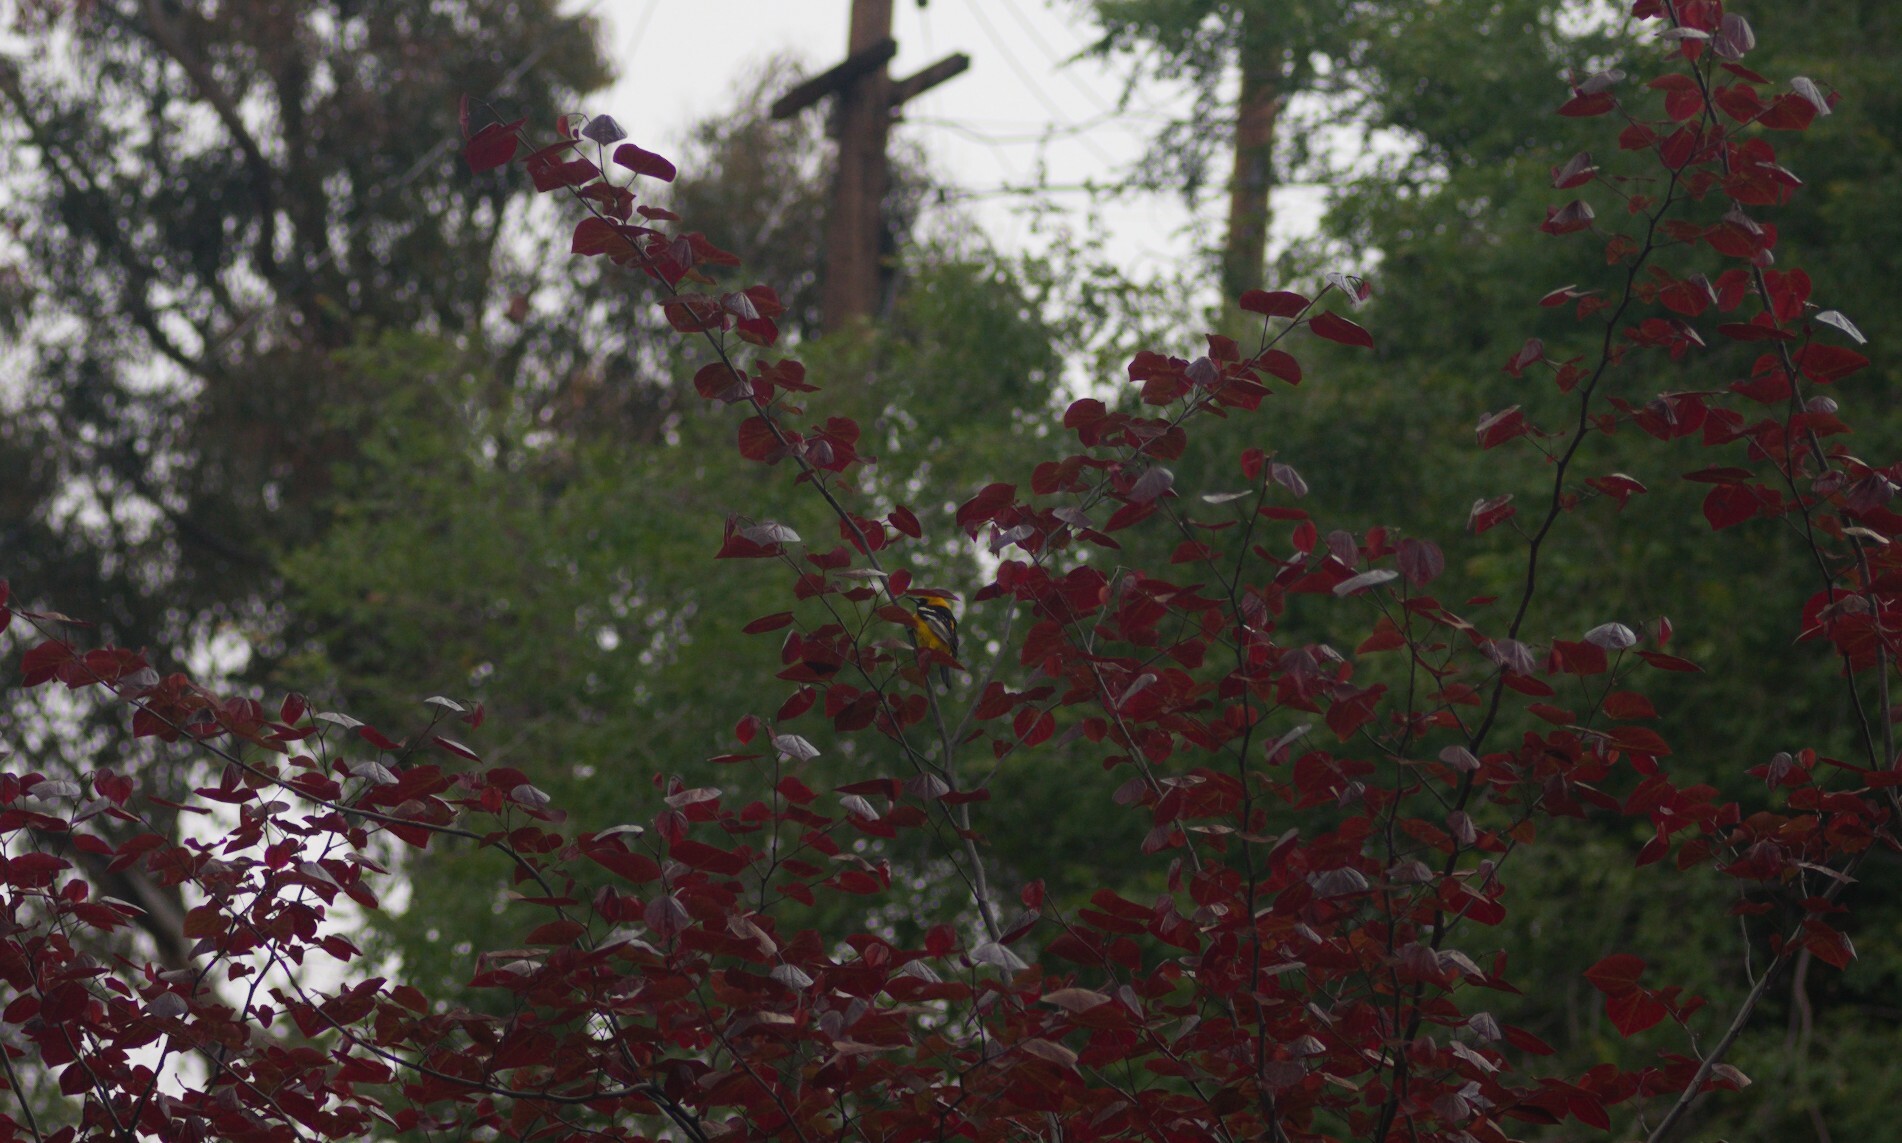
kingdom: Animalia
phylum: Chordata
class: Aves
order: Passeriformes
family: Icteridae
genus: Icterus
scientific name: Icterus cucullatus
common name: Hooded oriole
